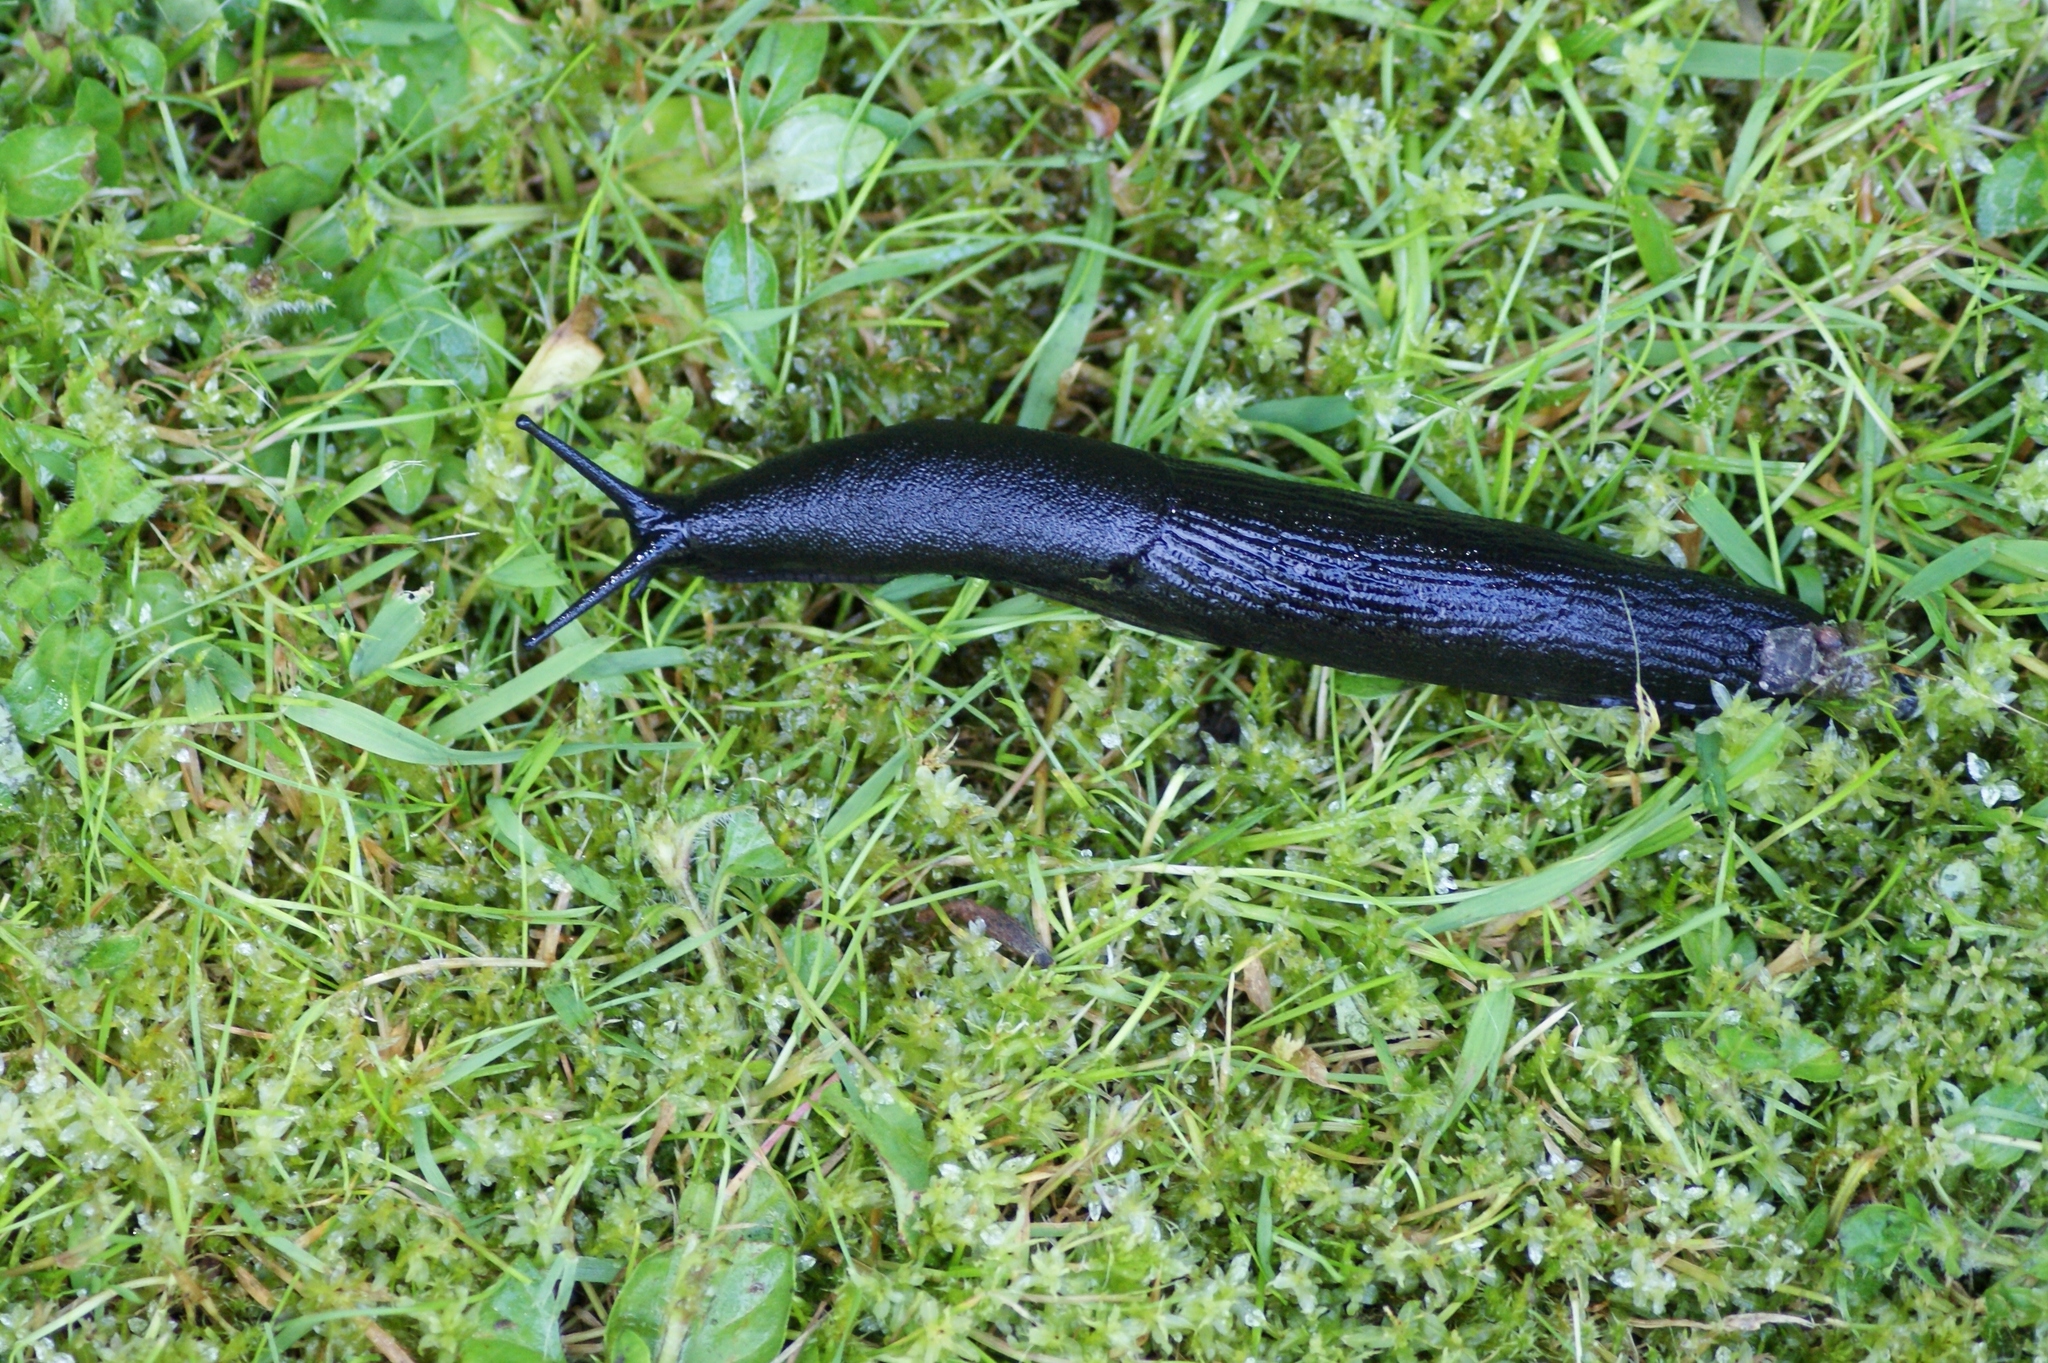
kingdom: Animalia
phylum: Mollusca
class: Gastropoda
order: Stylommatophora
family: Arionidae
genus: Arion
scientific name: Arion ater
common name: Black arion
